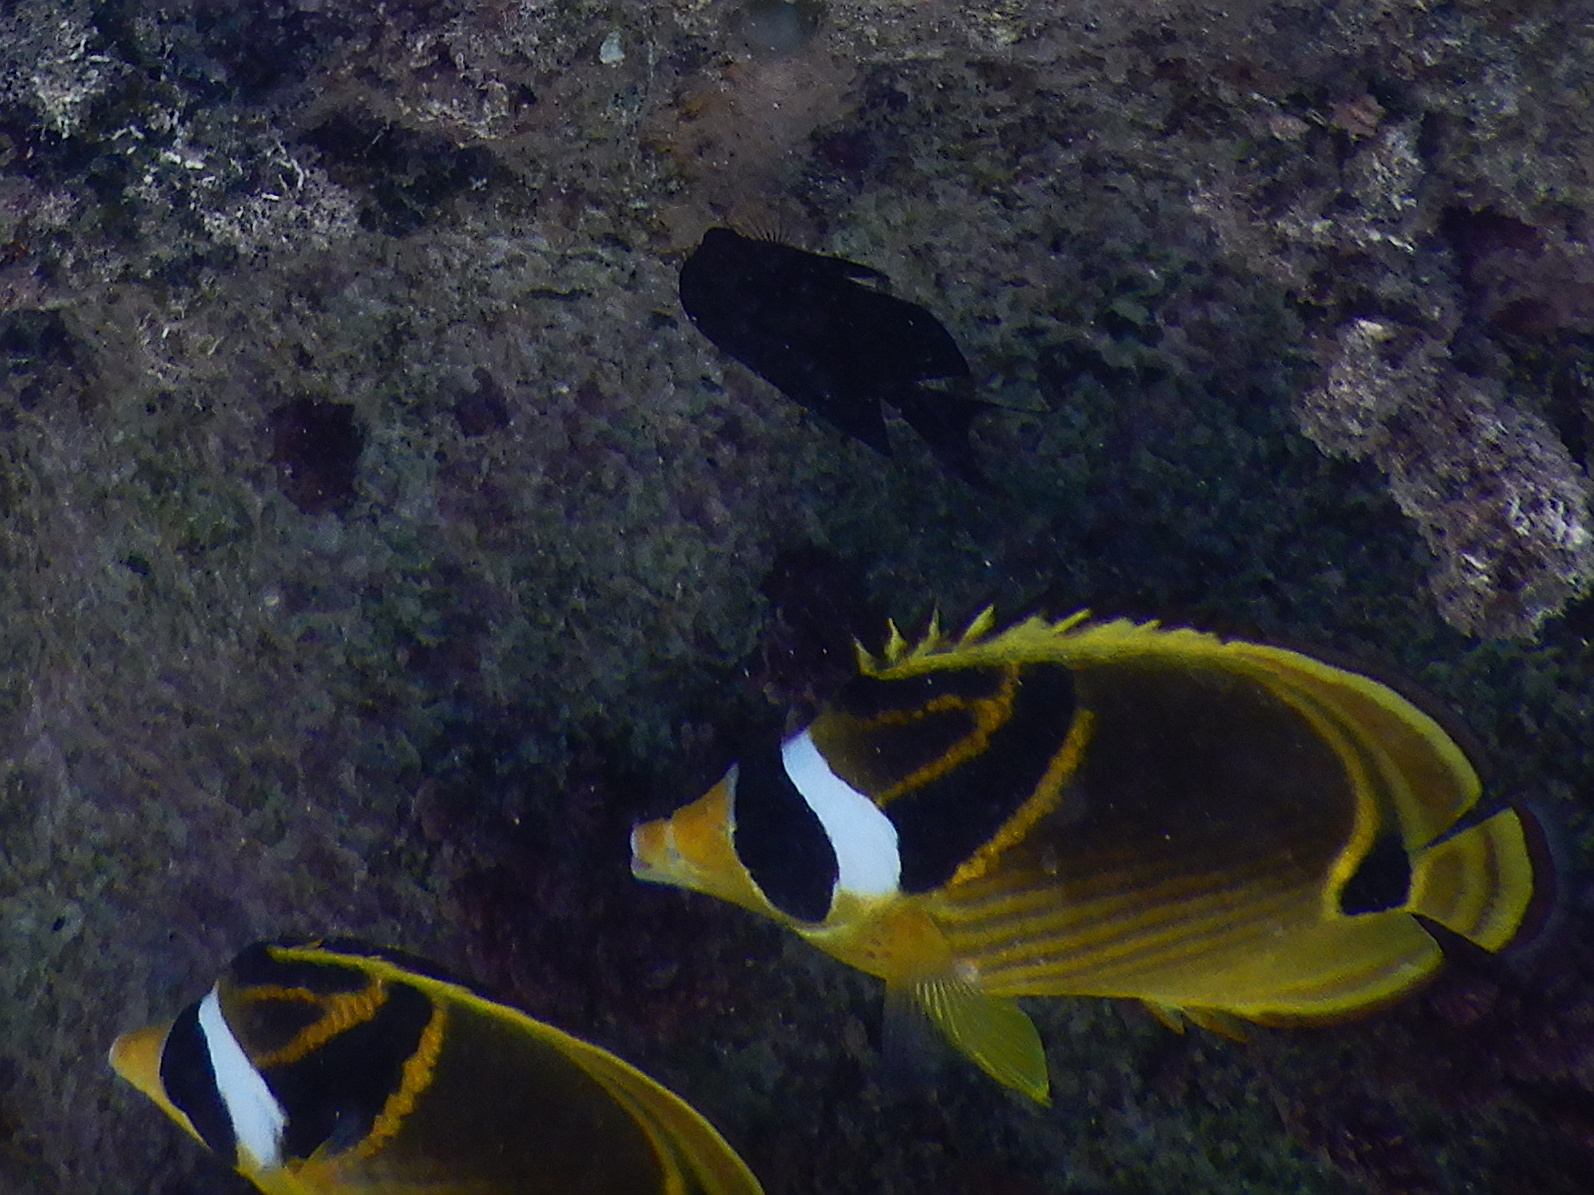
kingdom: Animalia
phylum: Chordata
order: Perciformes
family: Chaetodontidae
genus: Chaetodon
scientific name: Chaetodon lunula
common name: Raccoon butterflyfish
